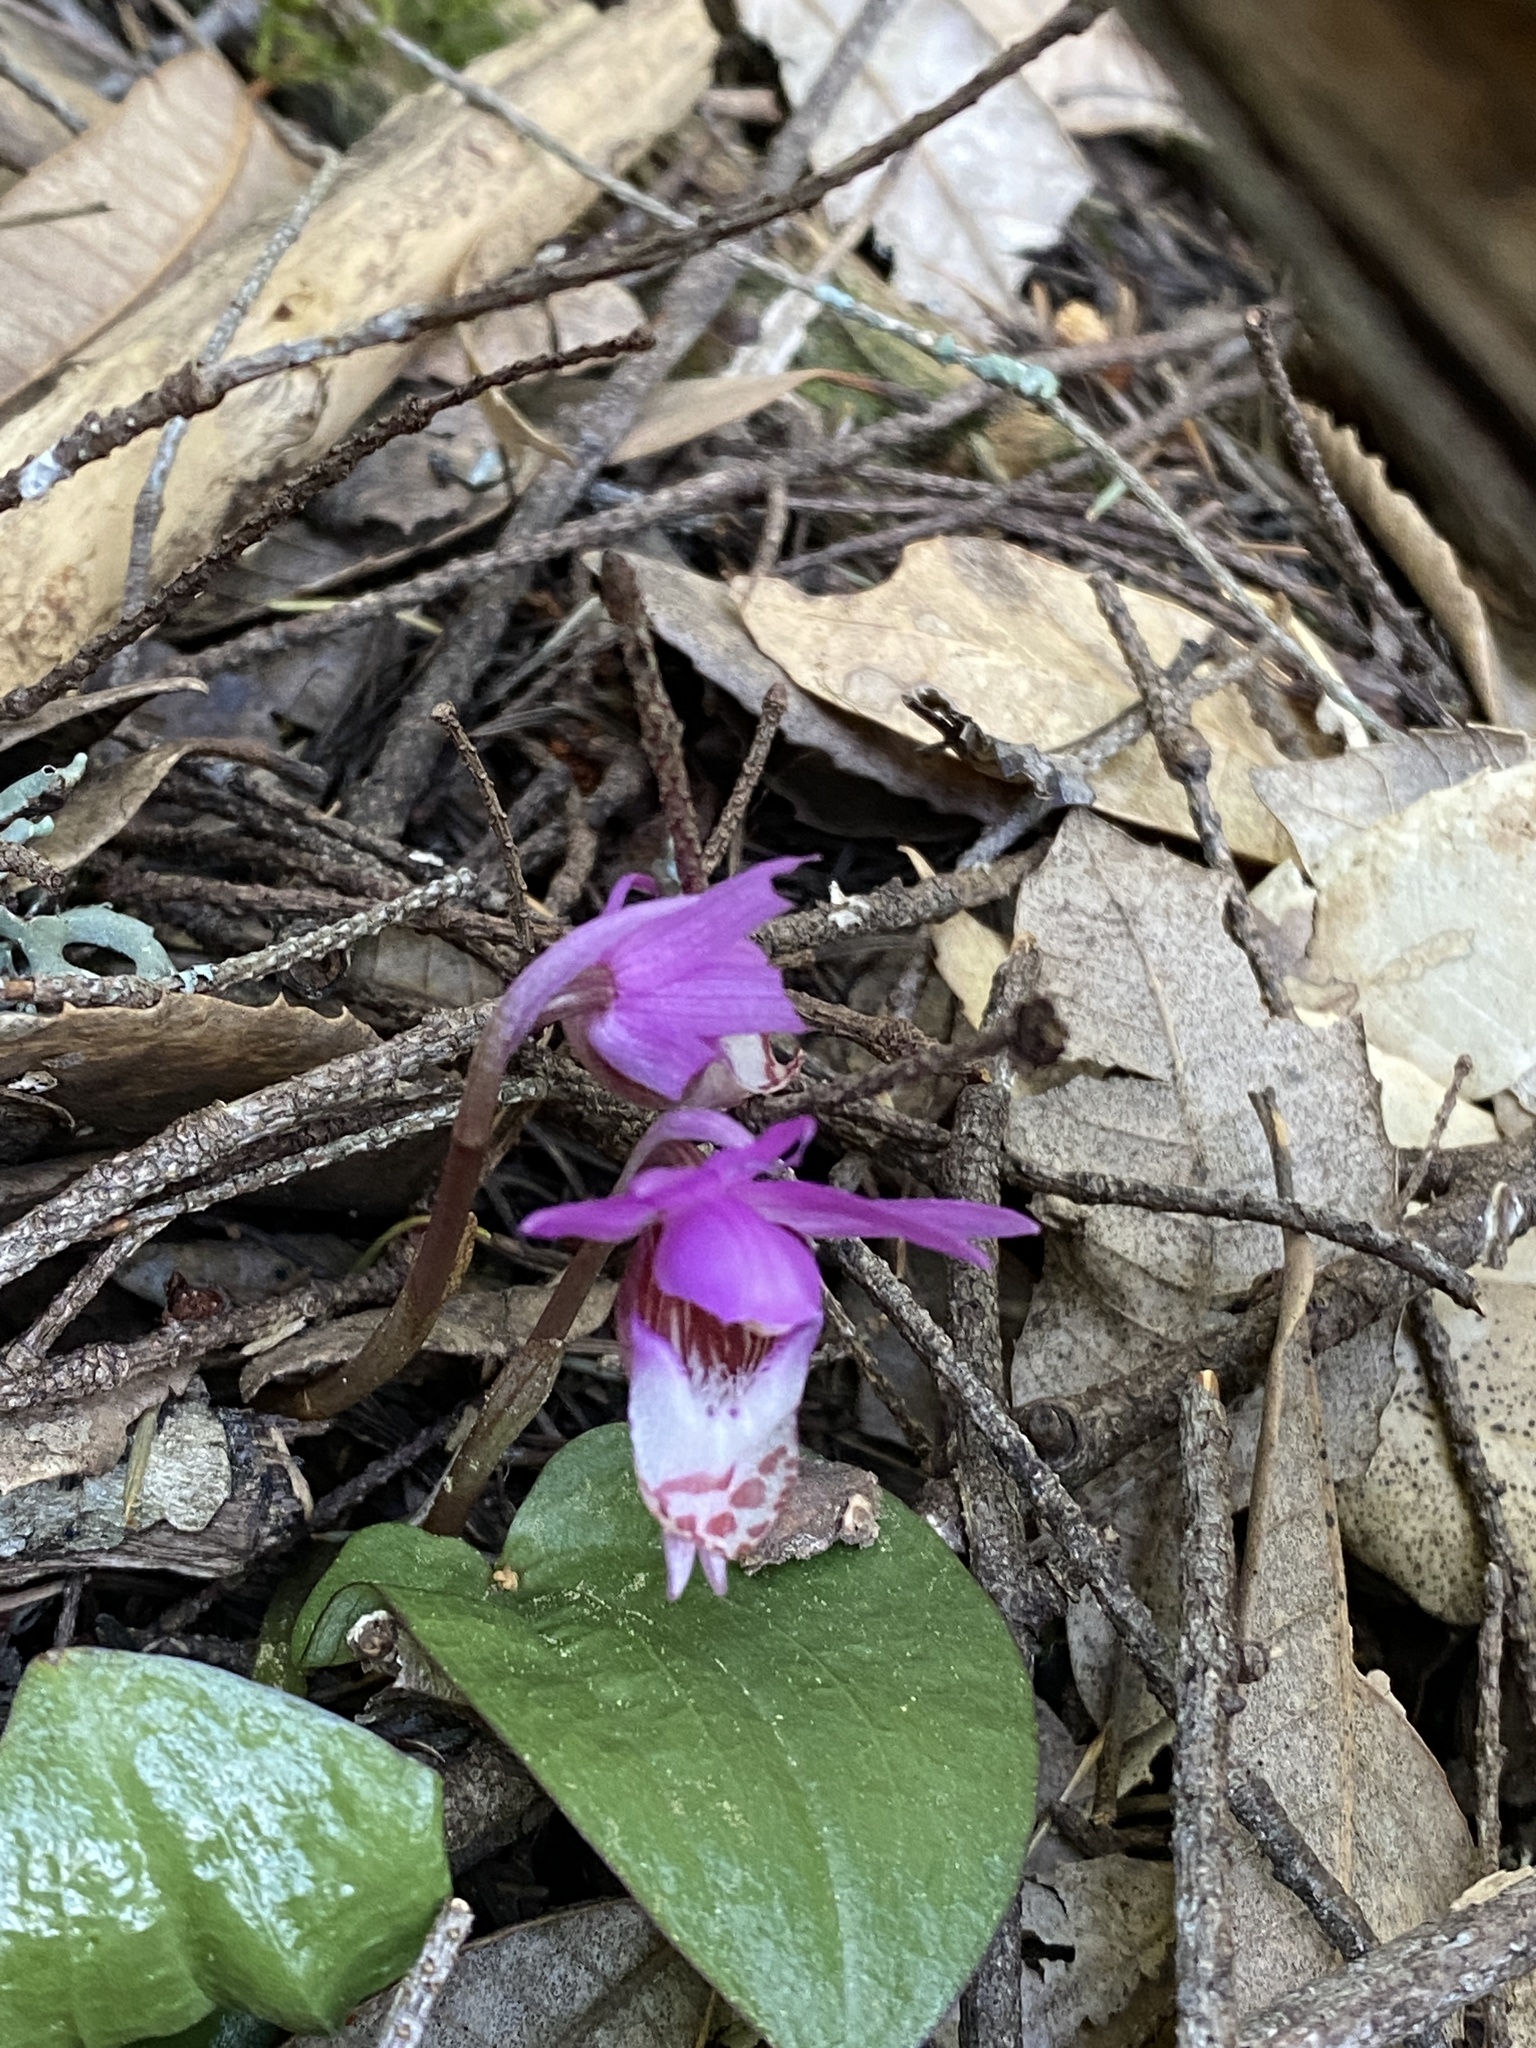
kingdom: Plantae
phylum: Tracheophyta
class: Liliopsida
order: Asparagales
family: Orchidaceae
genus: Calypso
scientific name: Calypso bulbosa
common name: Calypso
